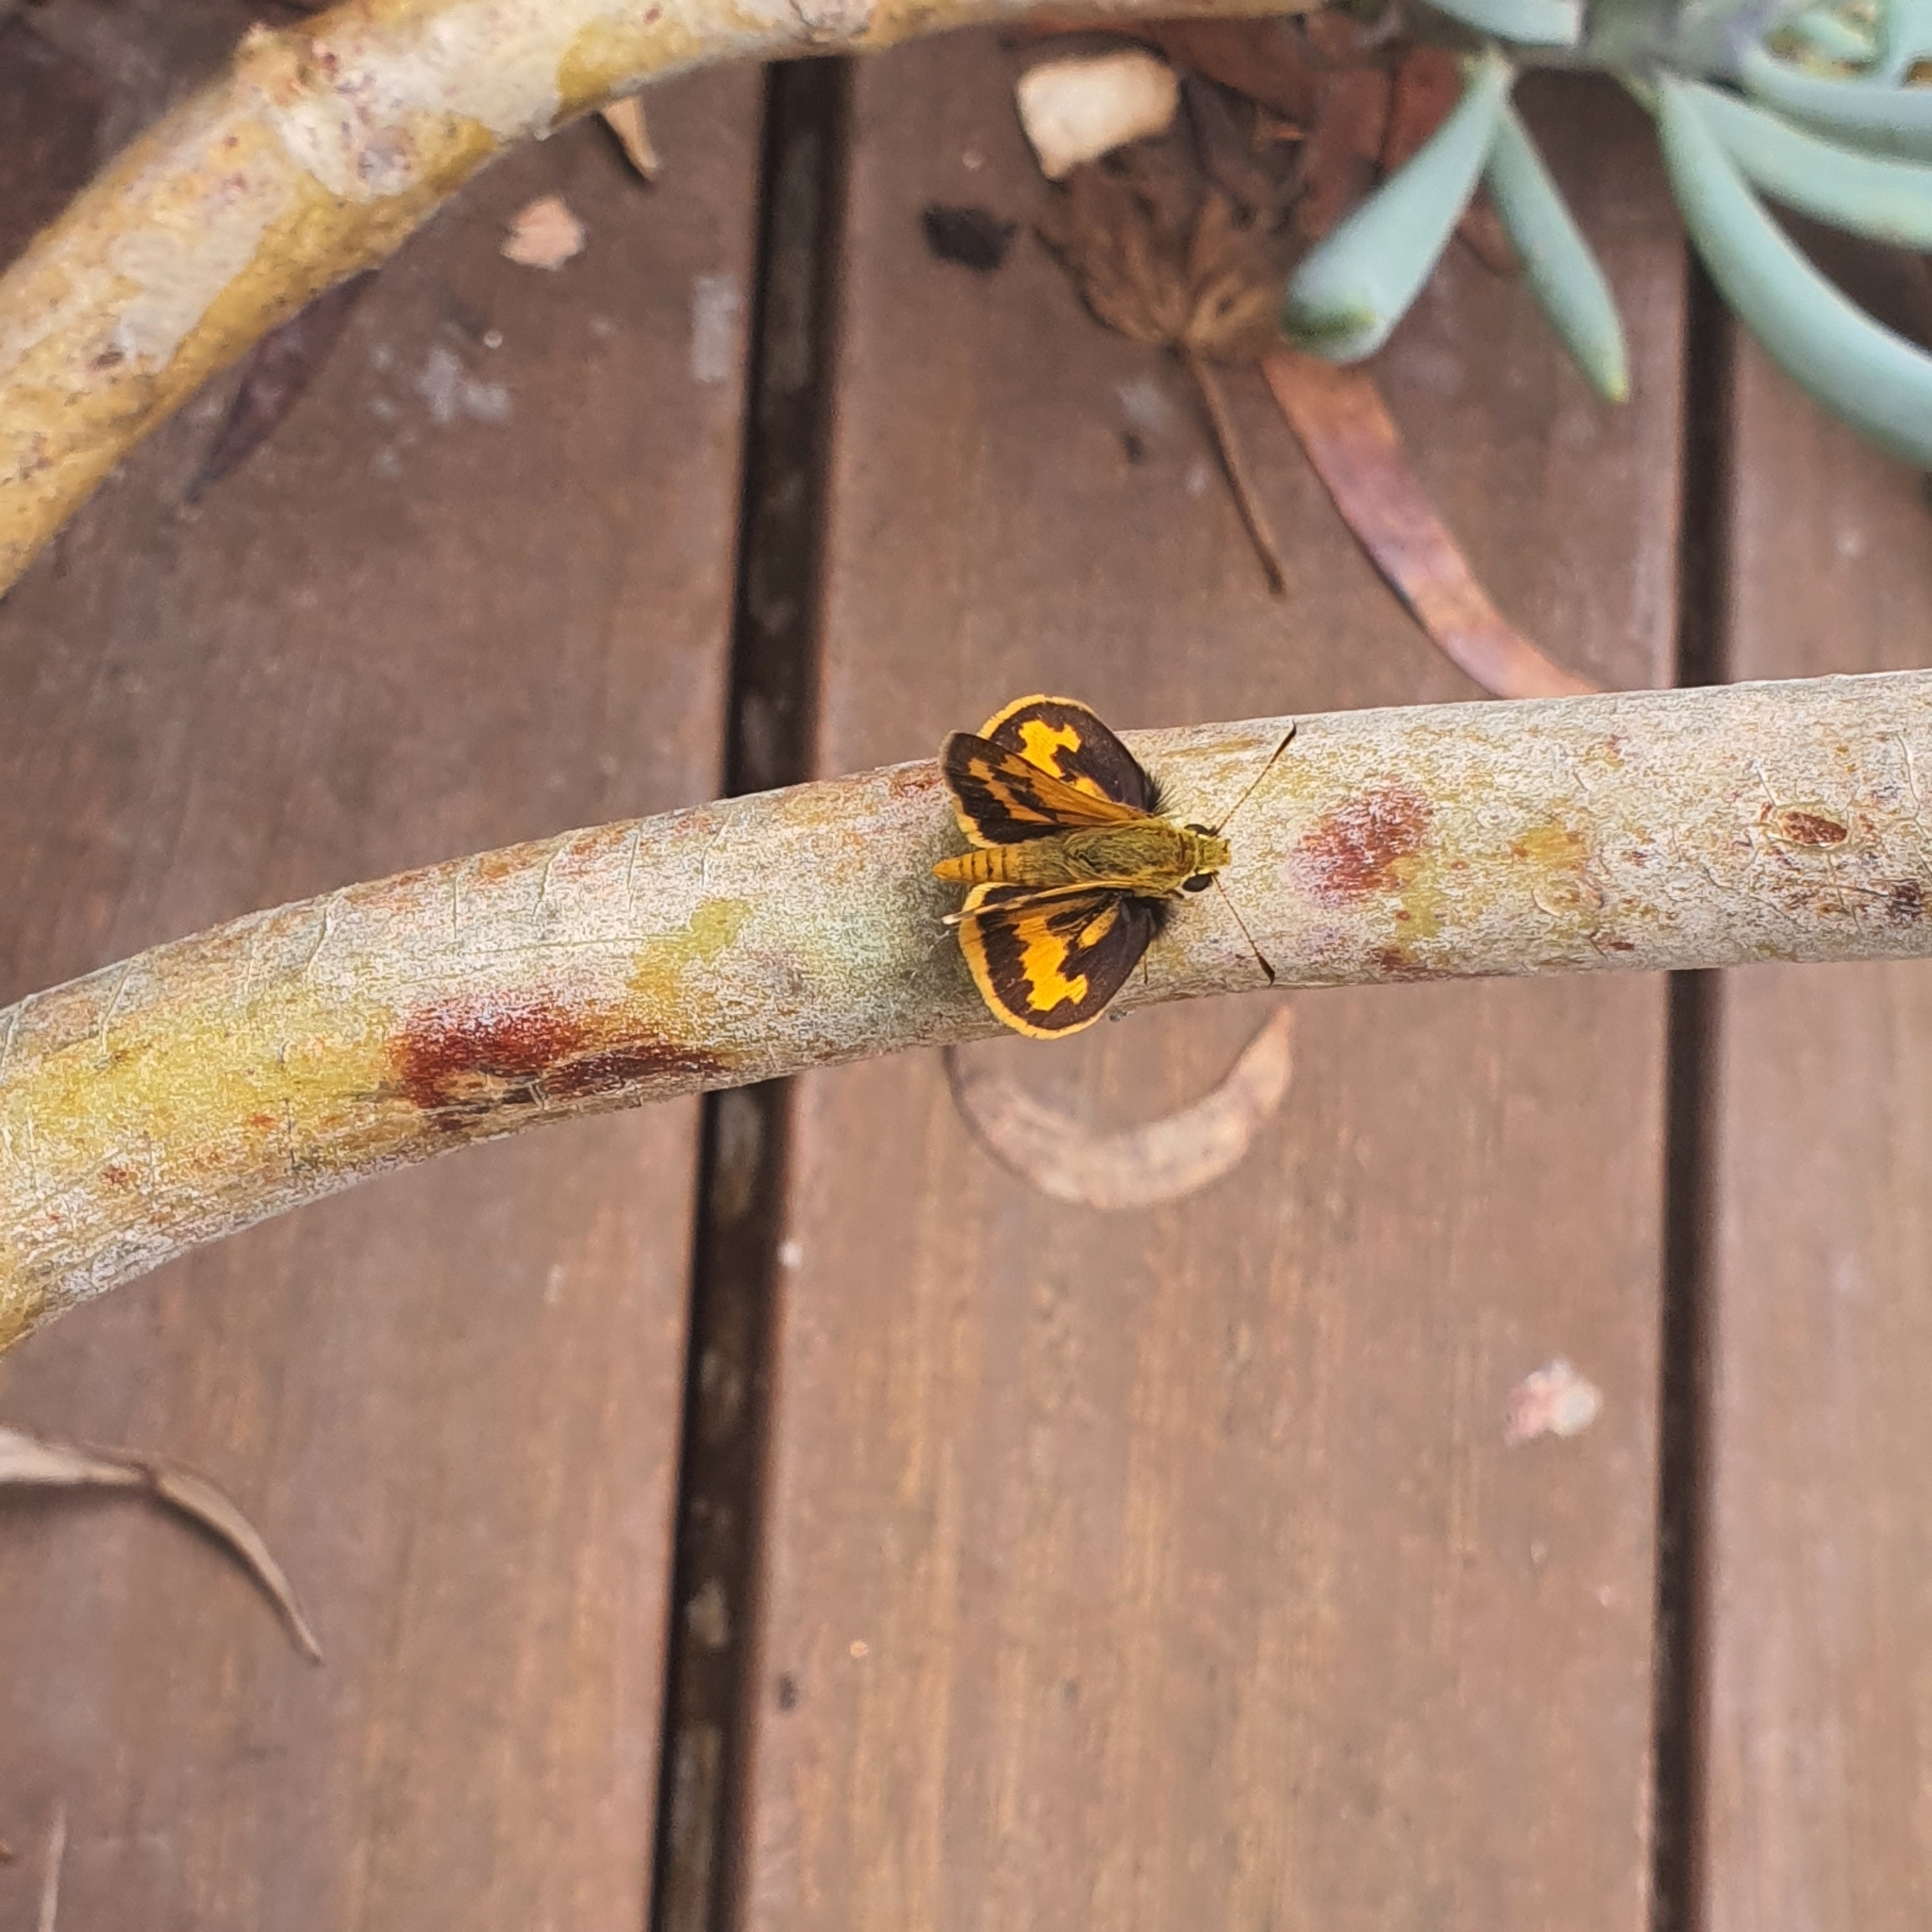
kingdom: Animalia
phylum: Arthropoda
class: Insecta
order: Lepidoptera
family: Hesperiidae
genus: Ocybadistes
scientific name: Ocybadistes walkeri
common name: Yellow-banded dart
